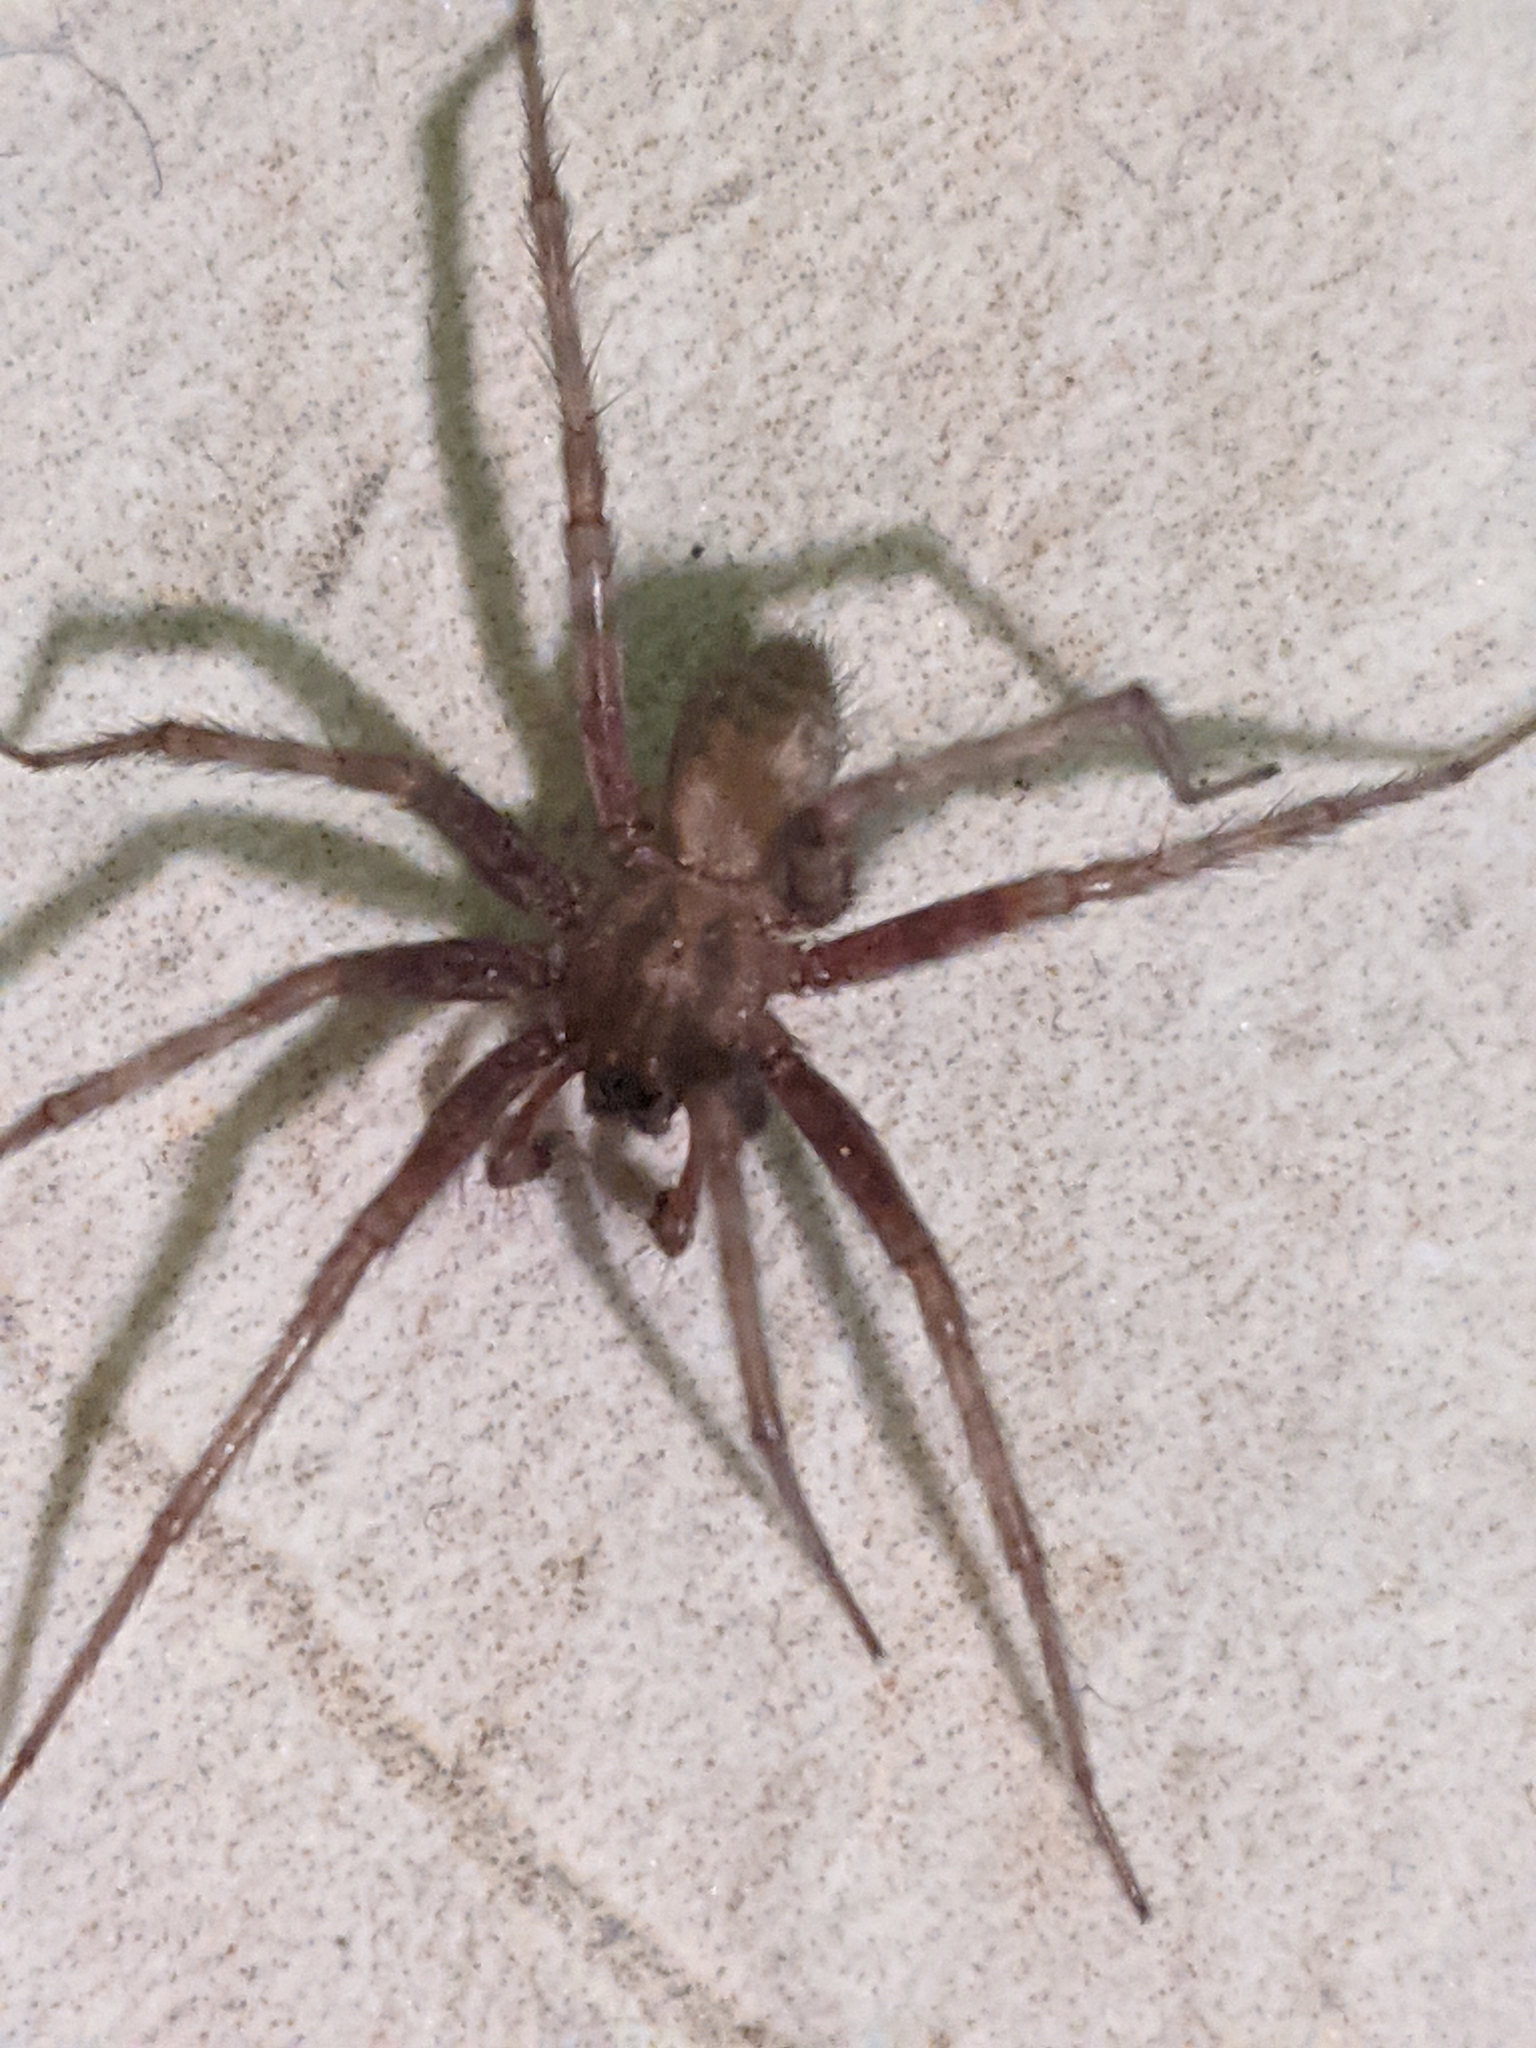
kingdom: Animalia
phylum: Arthropoda
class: Arachnida
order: Araneae
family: Agelenidae
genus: Tegenaria
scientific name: Tegenaria domestica
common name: Barn funnel weaver
